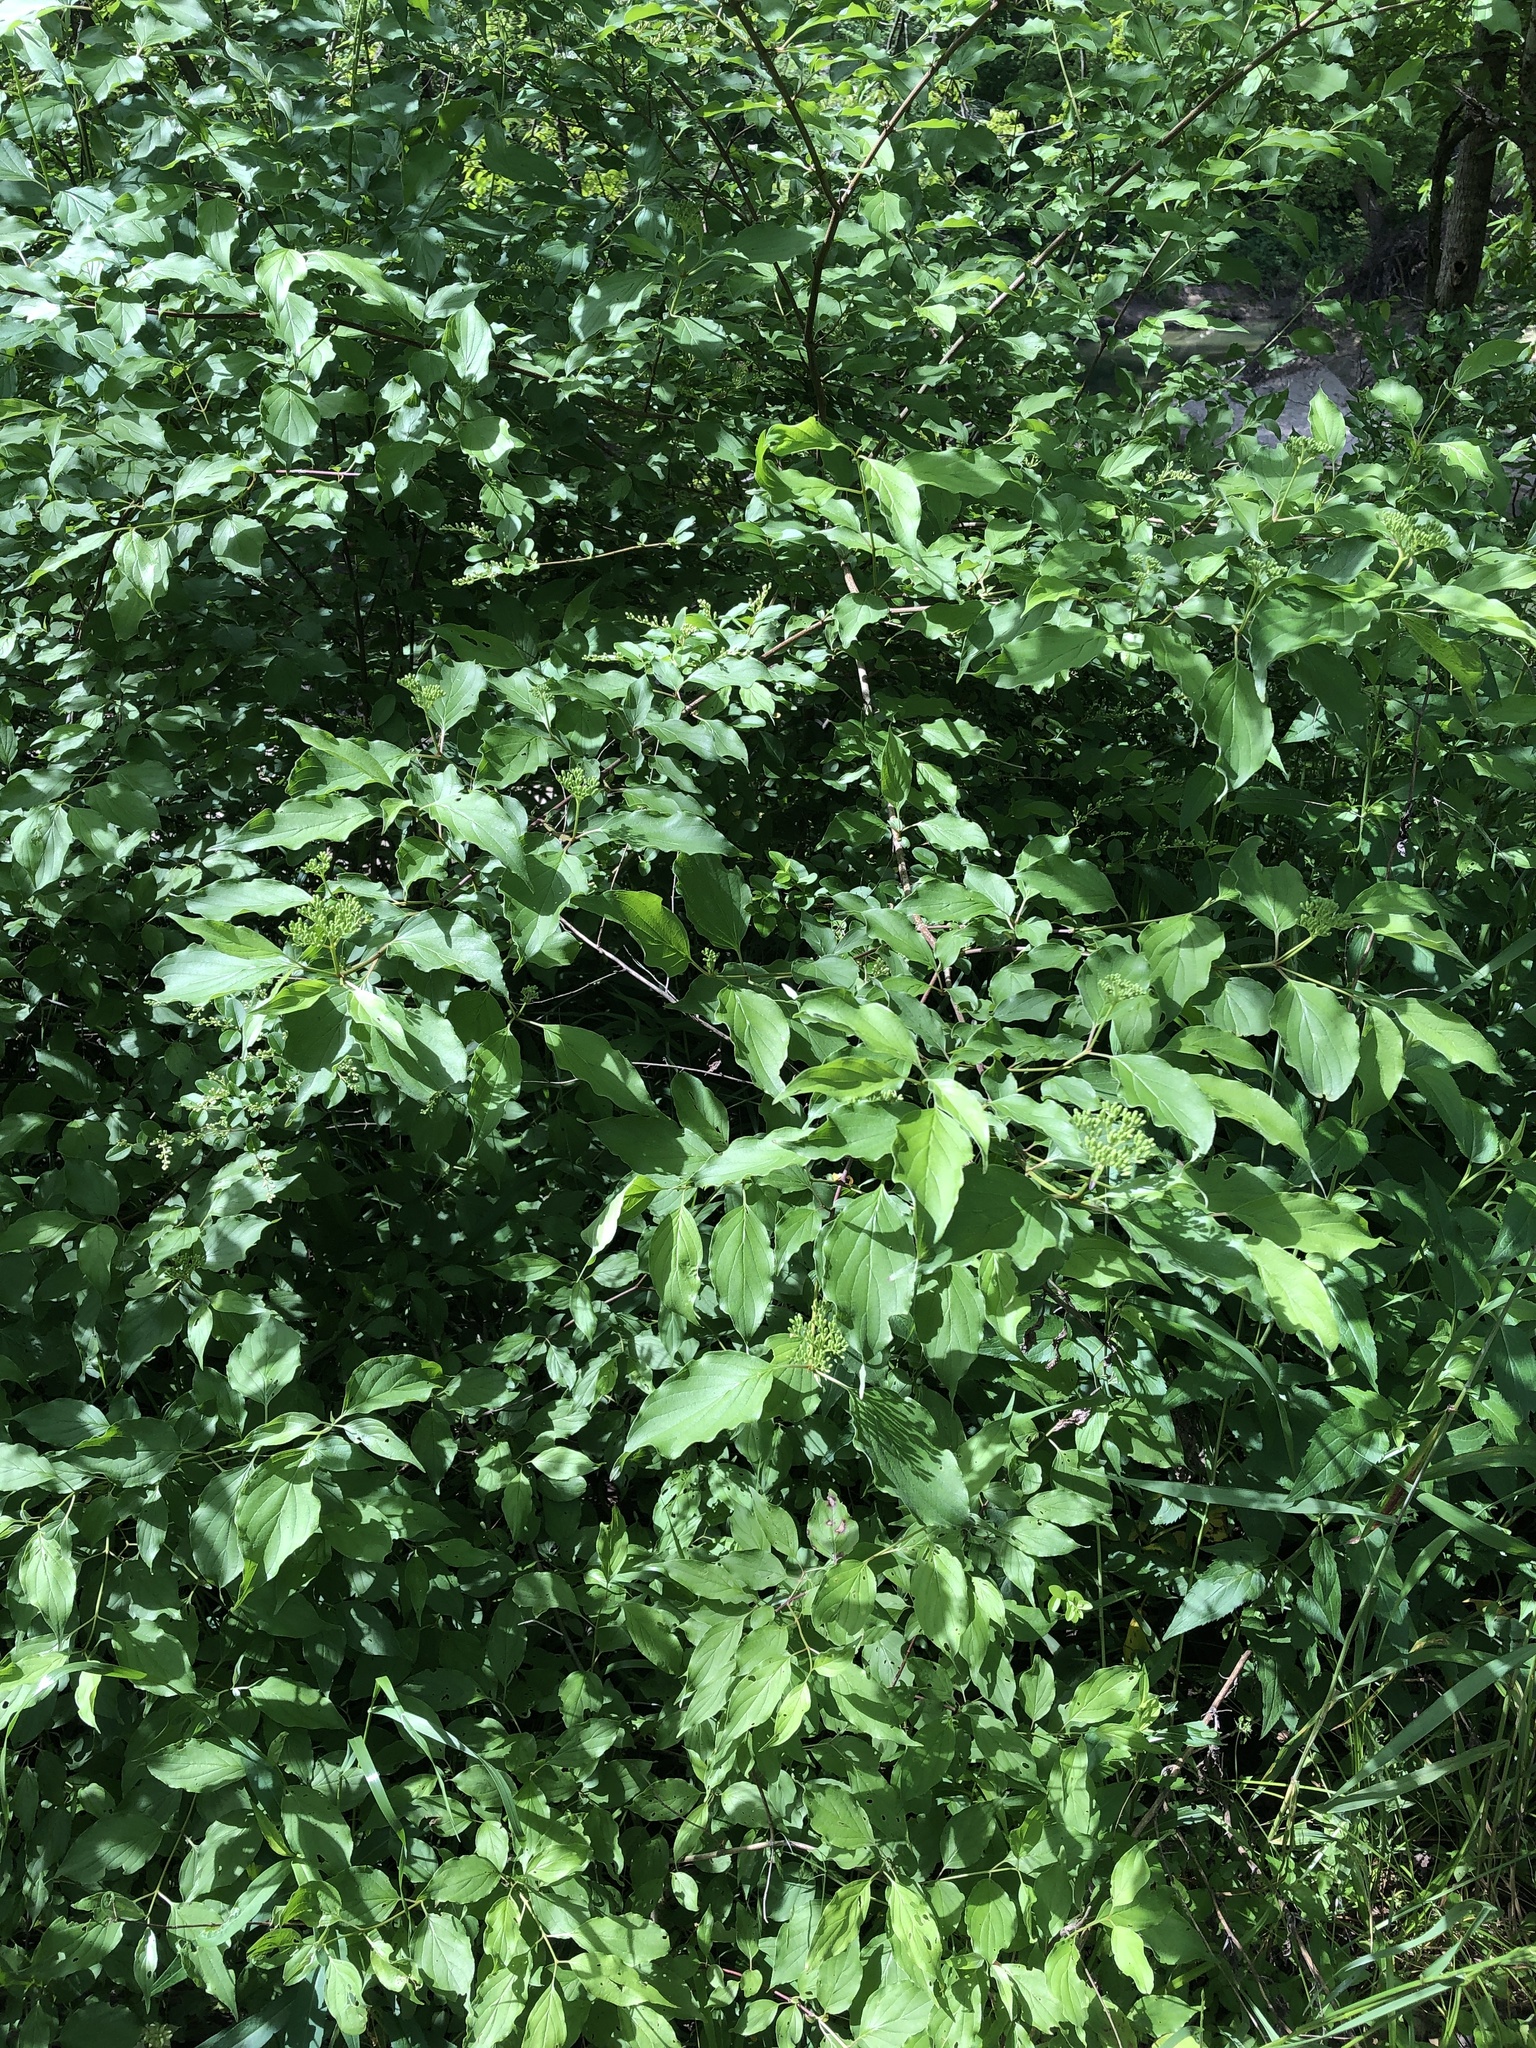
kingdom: Plantae
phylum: Tracheophyta
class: Magnoliopsida
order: Cornales
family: Cornaceae
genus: Cornus
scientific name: Cornus drummondii
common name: Rough-leaf dogwood
